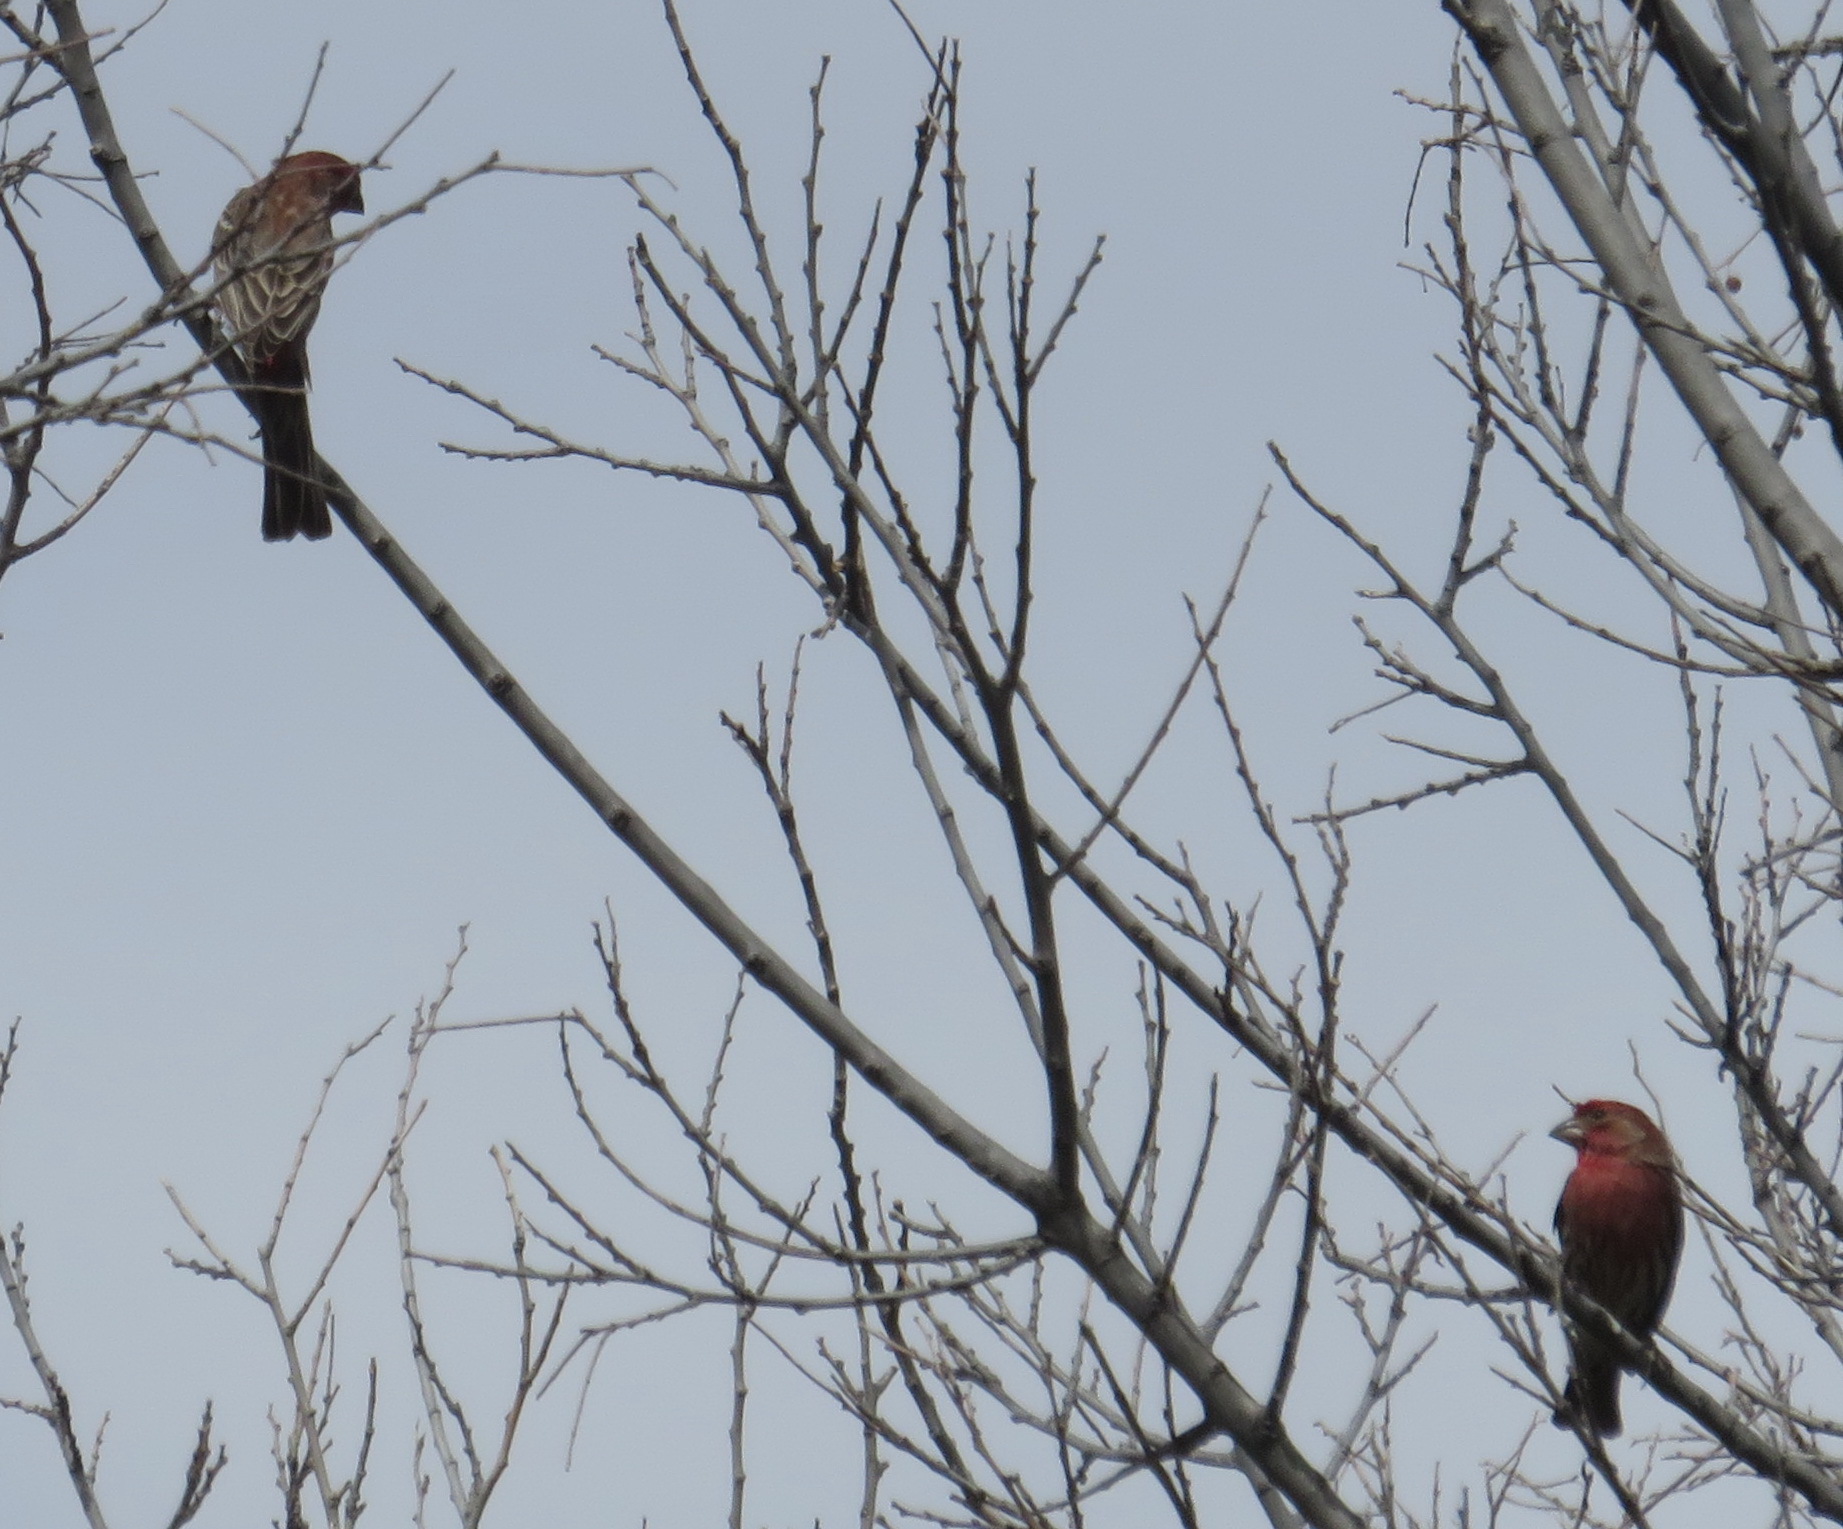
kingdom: Animalia
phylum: Chordata
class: Aves
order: Passeriformes
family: Fringillidae
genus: Haemorhous
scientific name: Haemorhous mexicanus
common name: House finch
